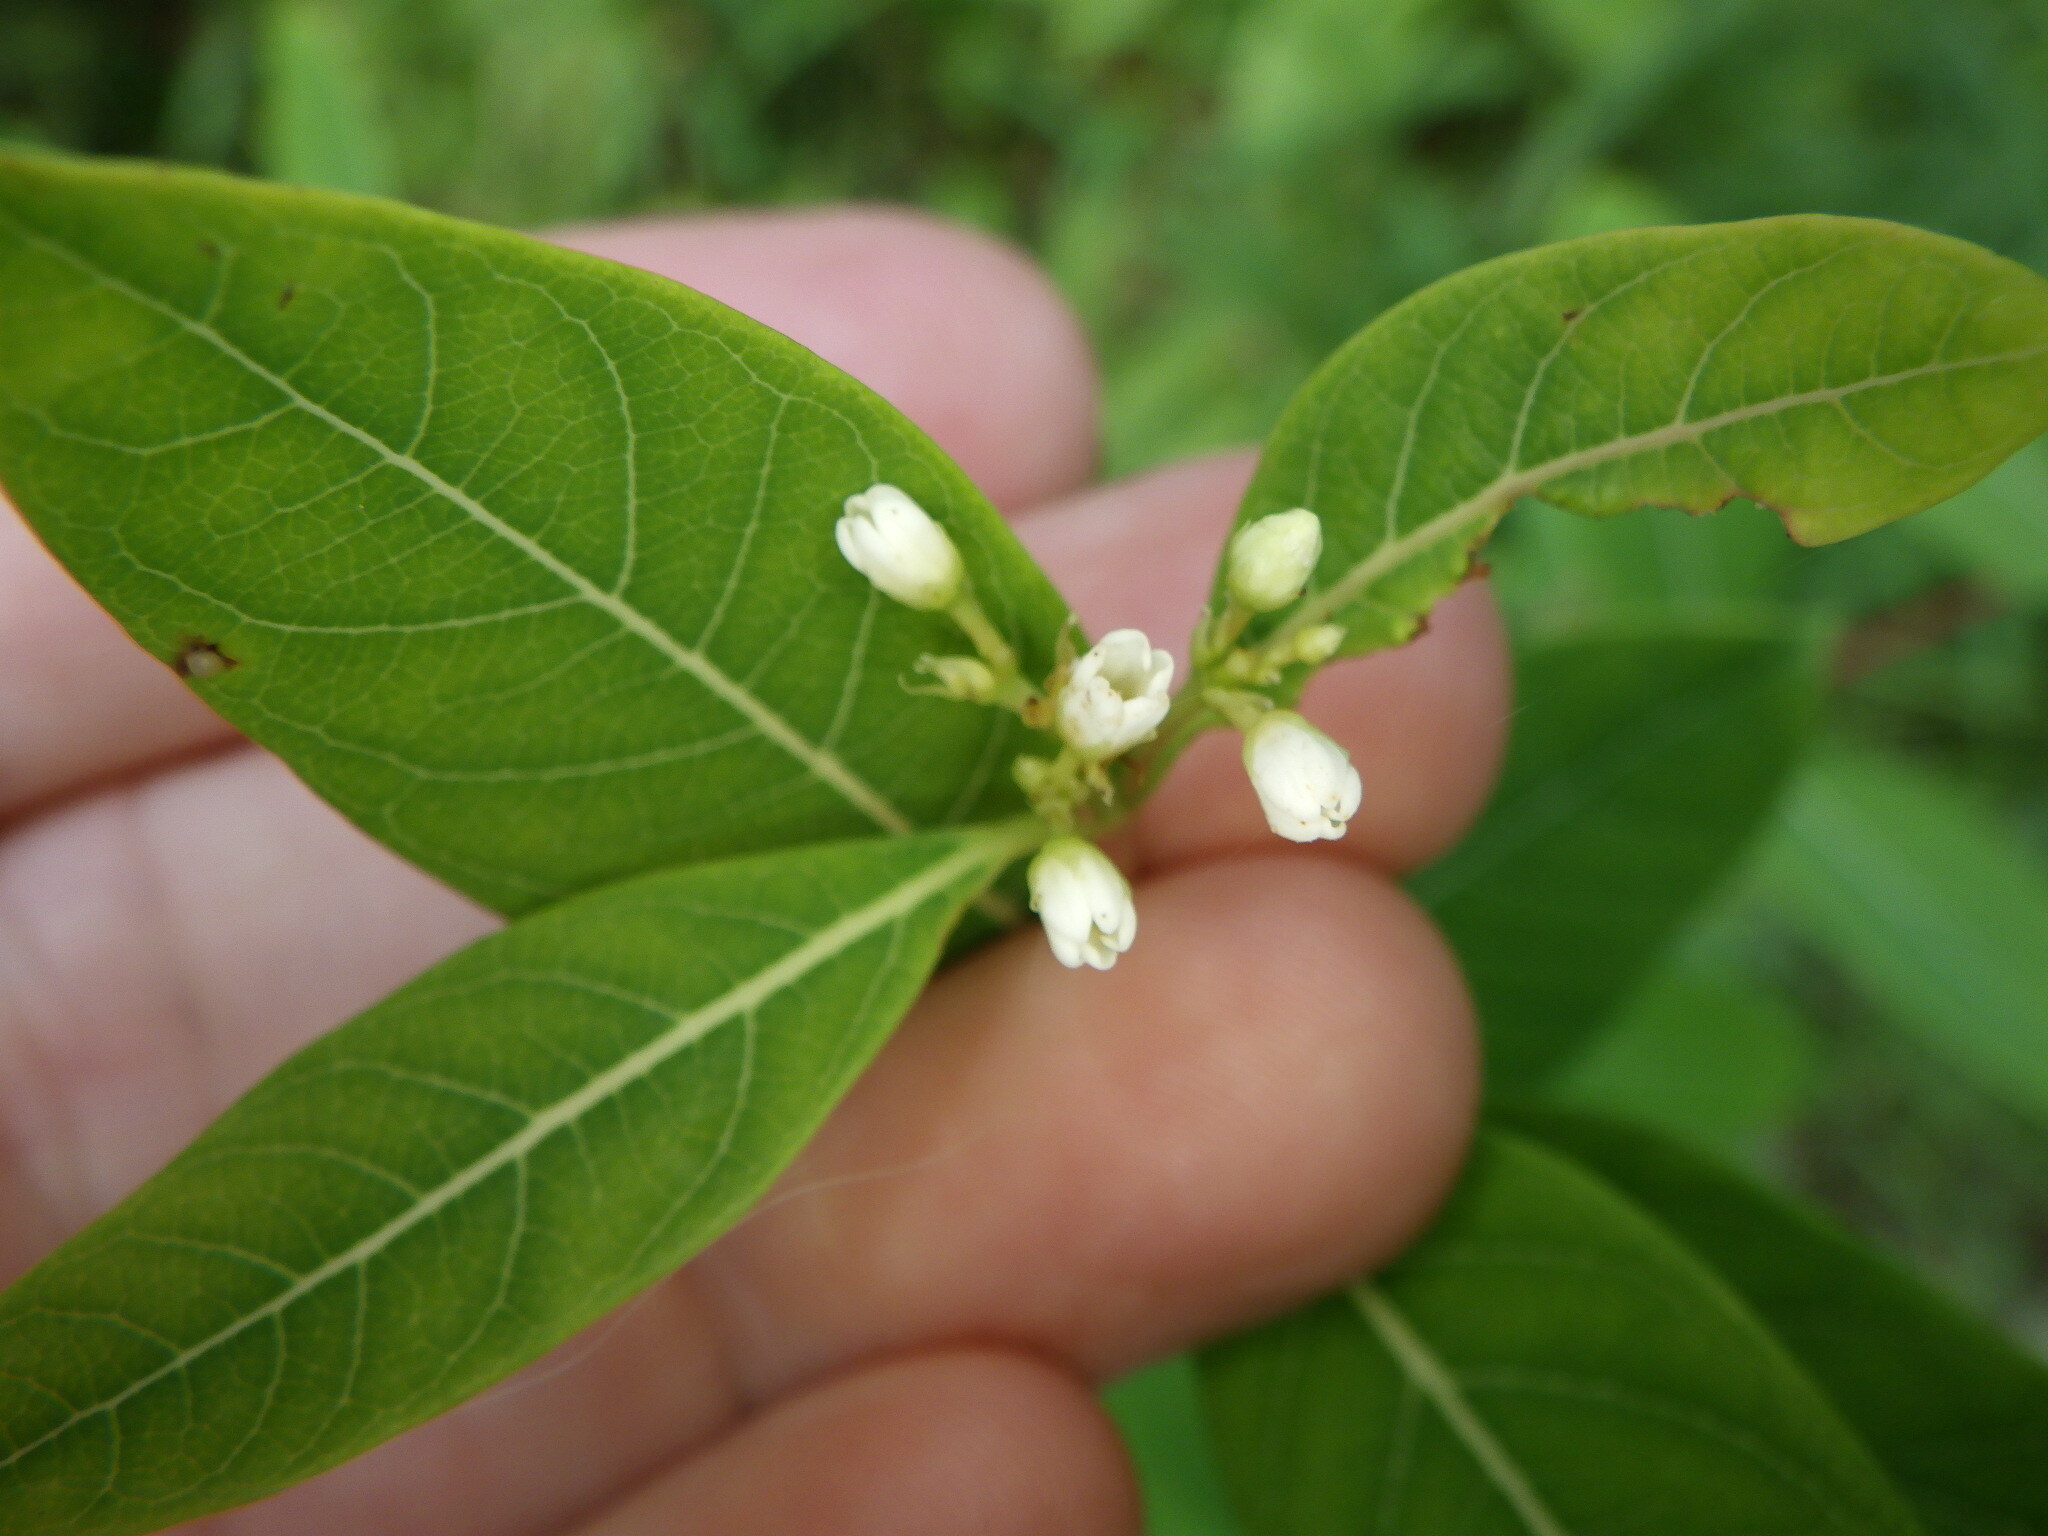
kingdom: Plantae
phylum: Tracheophyta
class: Magnoliopsida
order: Gentianales
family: Apocynaceae
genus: Apocynum
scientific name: Apocynum cannabinum
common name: Hemp dogbane
